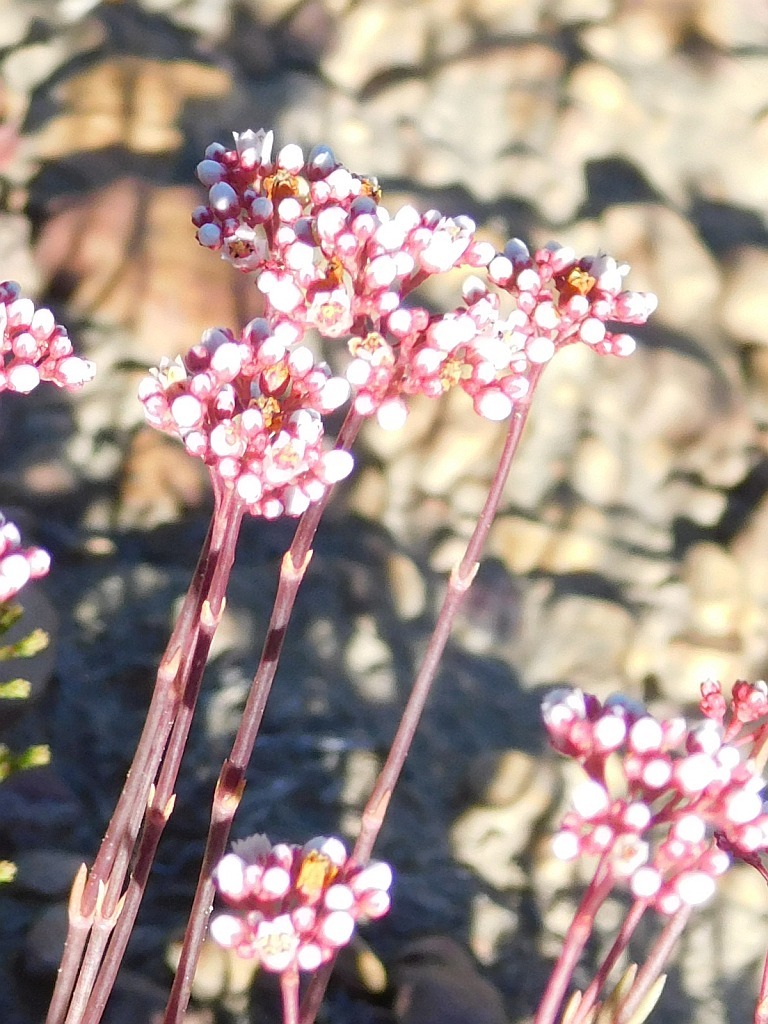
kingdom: Plantae
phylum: Tracheophyta
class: Magnoliopsida
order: Saxifragales
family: Crassulaceae
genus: Crassula
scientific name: Crassula tetragona
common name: Pygmyweed
